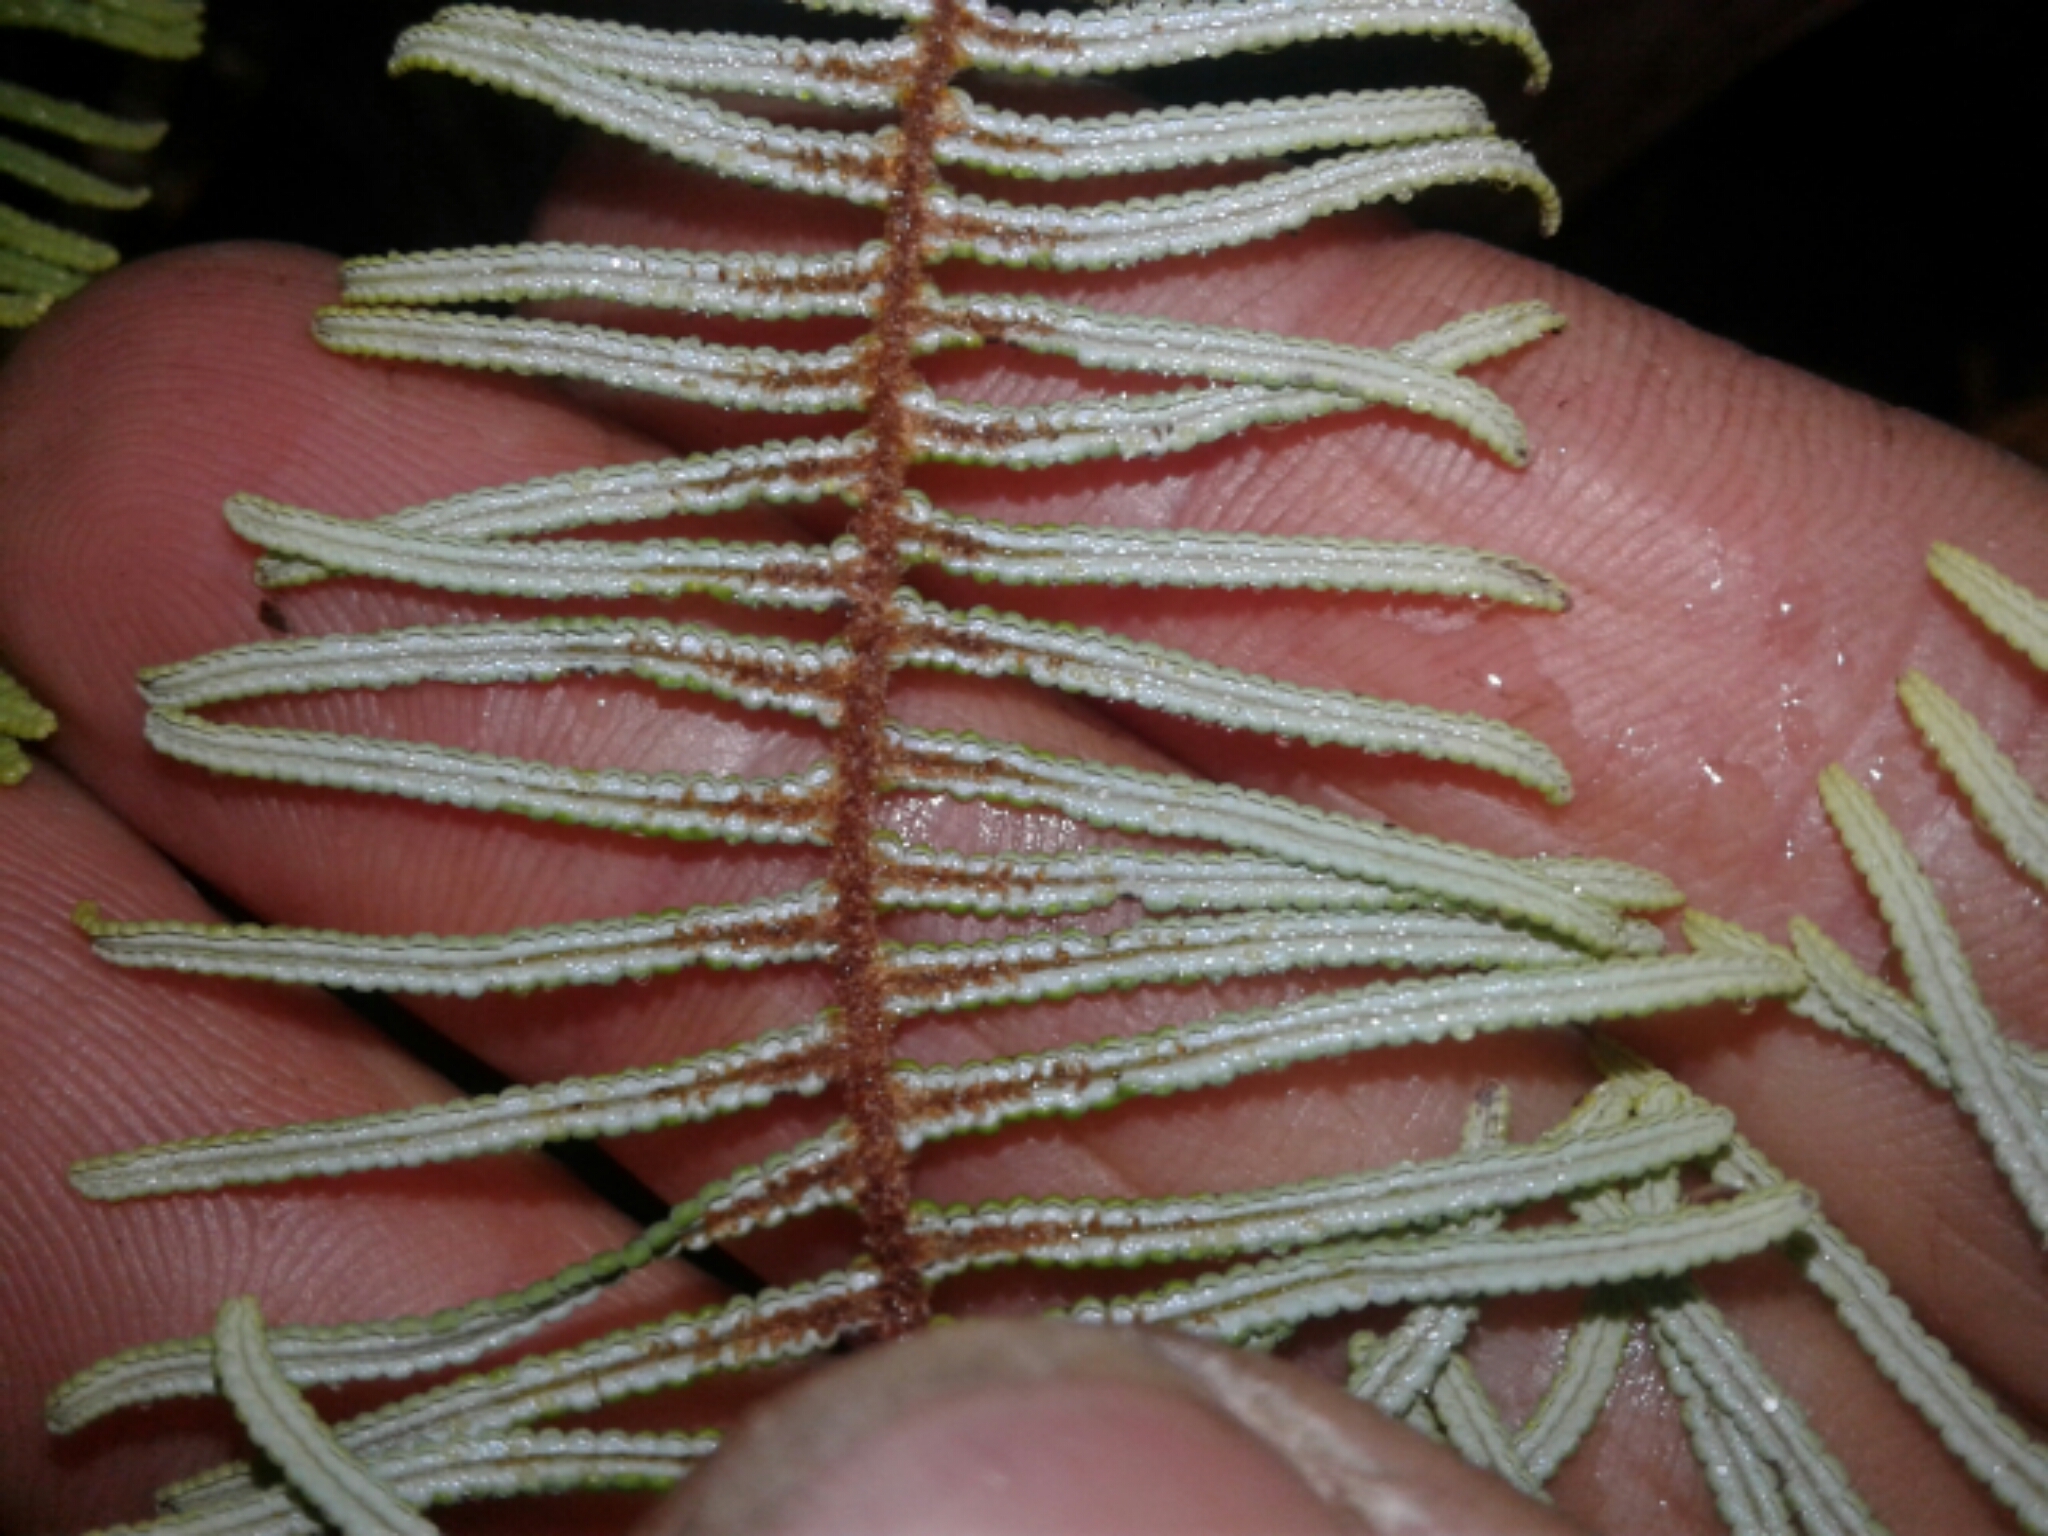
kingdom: Plantae
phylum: Tracheophyta
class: Polypodiopsida
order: Gleicheniales
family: Gleicheniaceae
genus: Gleichenia
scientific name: Gleichenia dicarpa
